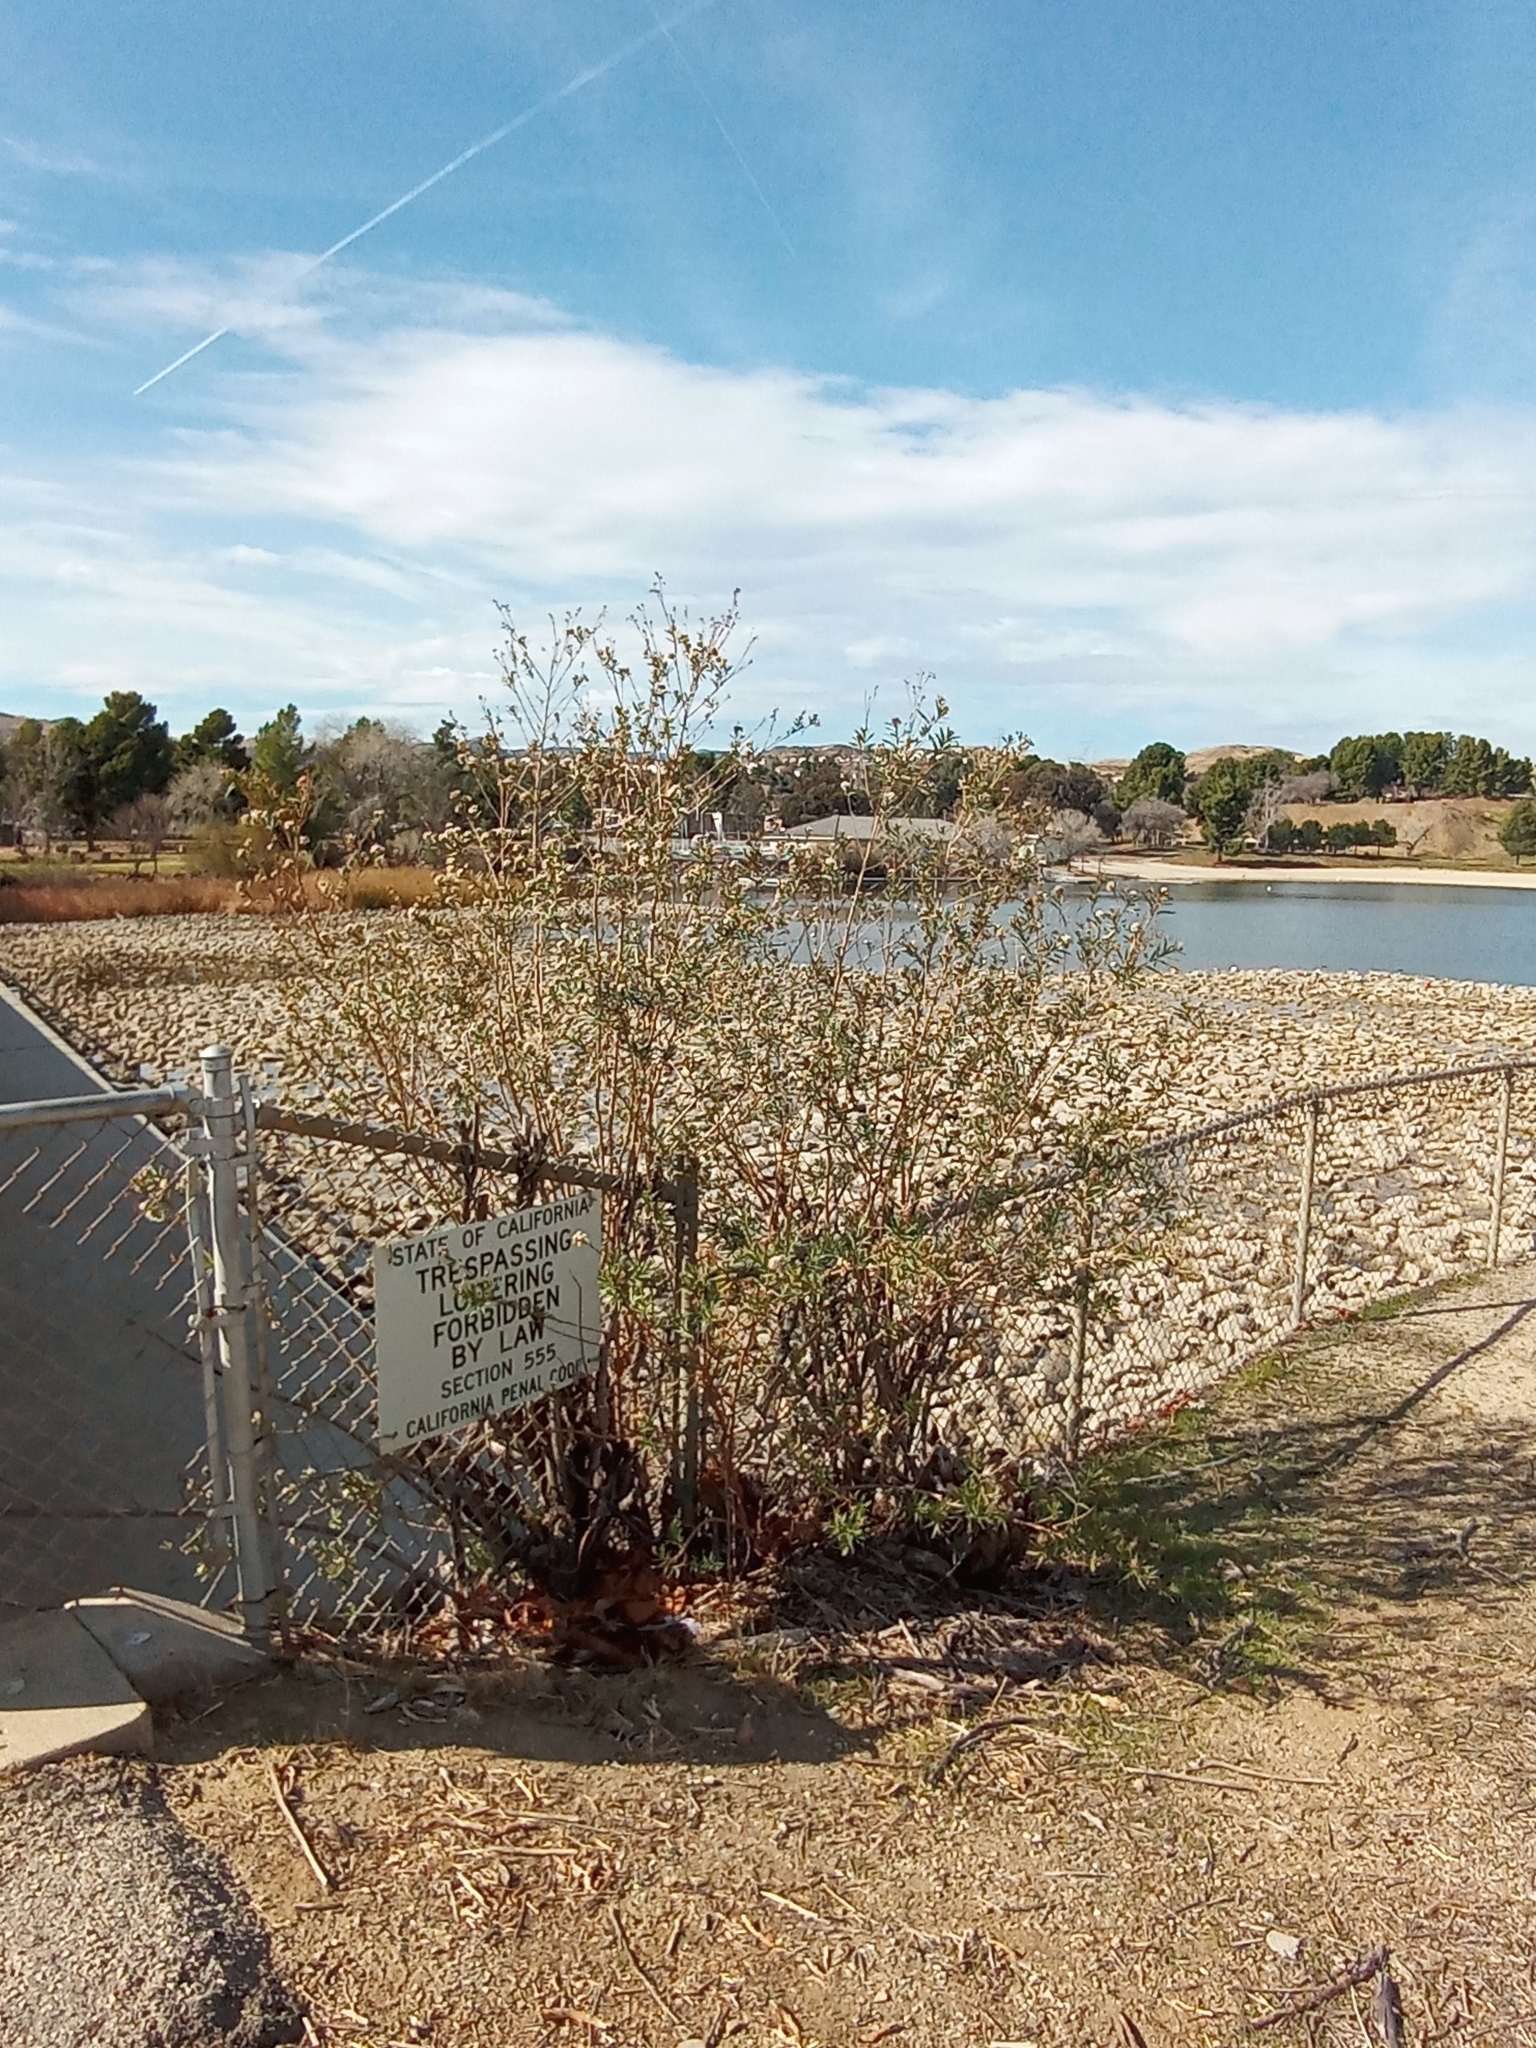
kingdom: Plantae
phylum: Tracheophyta
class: Magnoliopsida
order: Asterales
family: Asteraceae
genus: Baccharis
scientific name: Baccharis salicifolia
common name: Sticky baccharis
